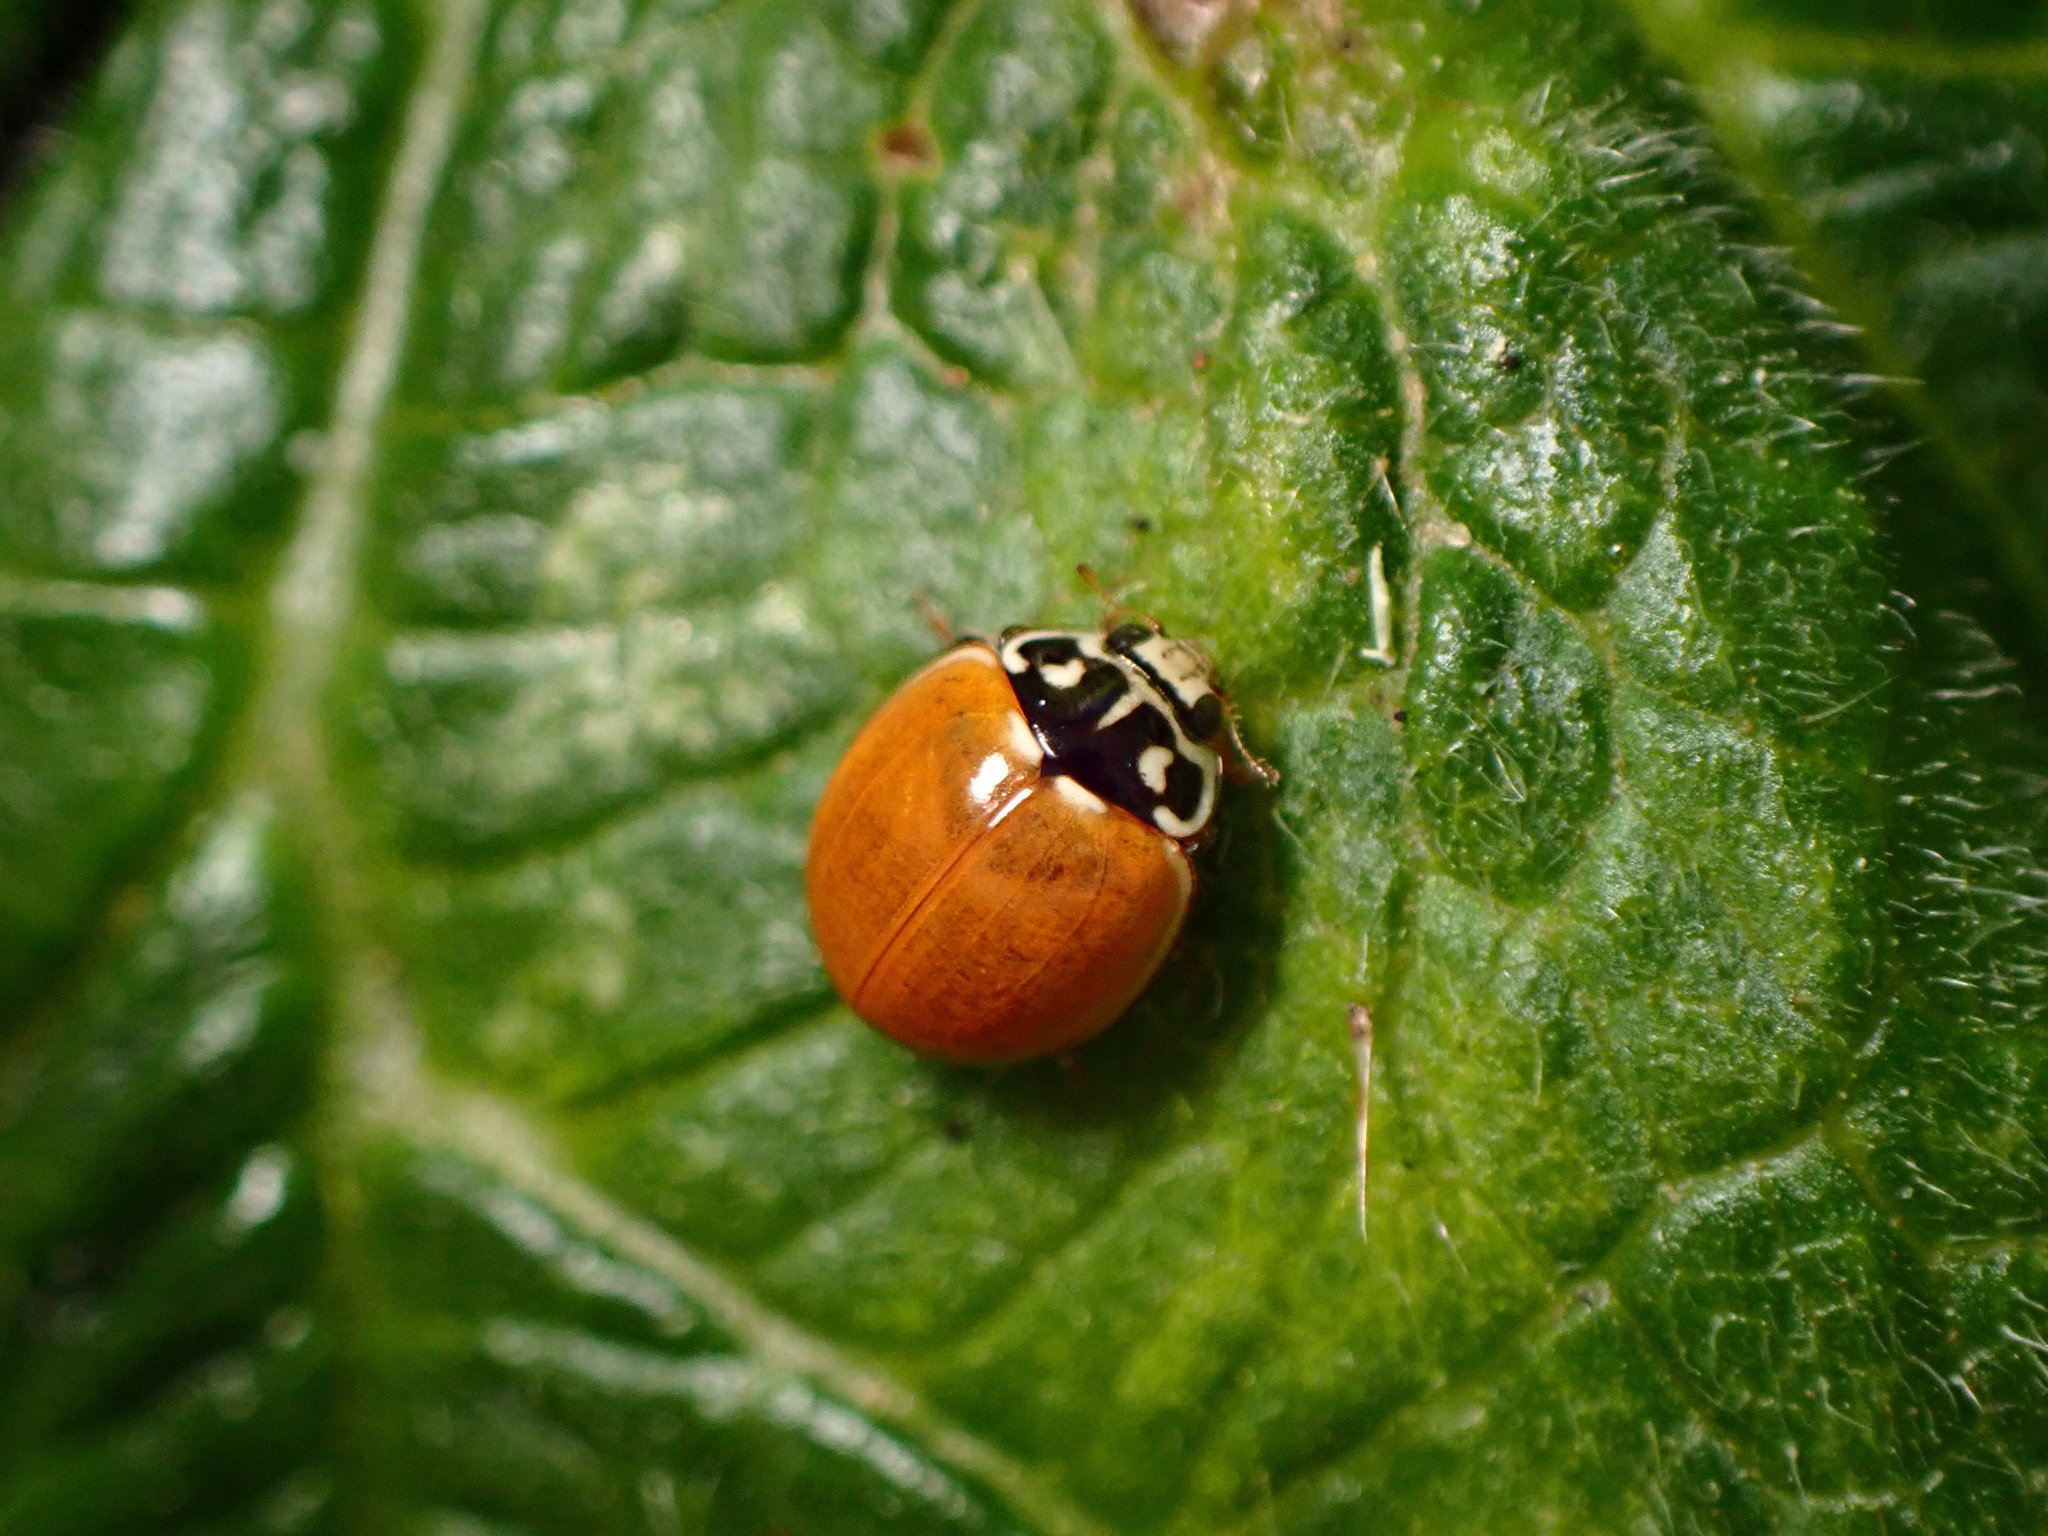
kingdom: Animalia
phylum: Arthropoda
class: Insecta
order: Coleoptera
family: Coccinellidae
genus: Cycloneda
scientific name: Cycloneda polita
